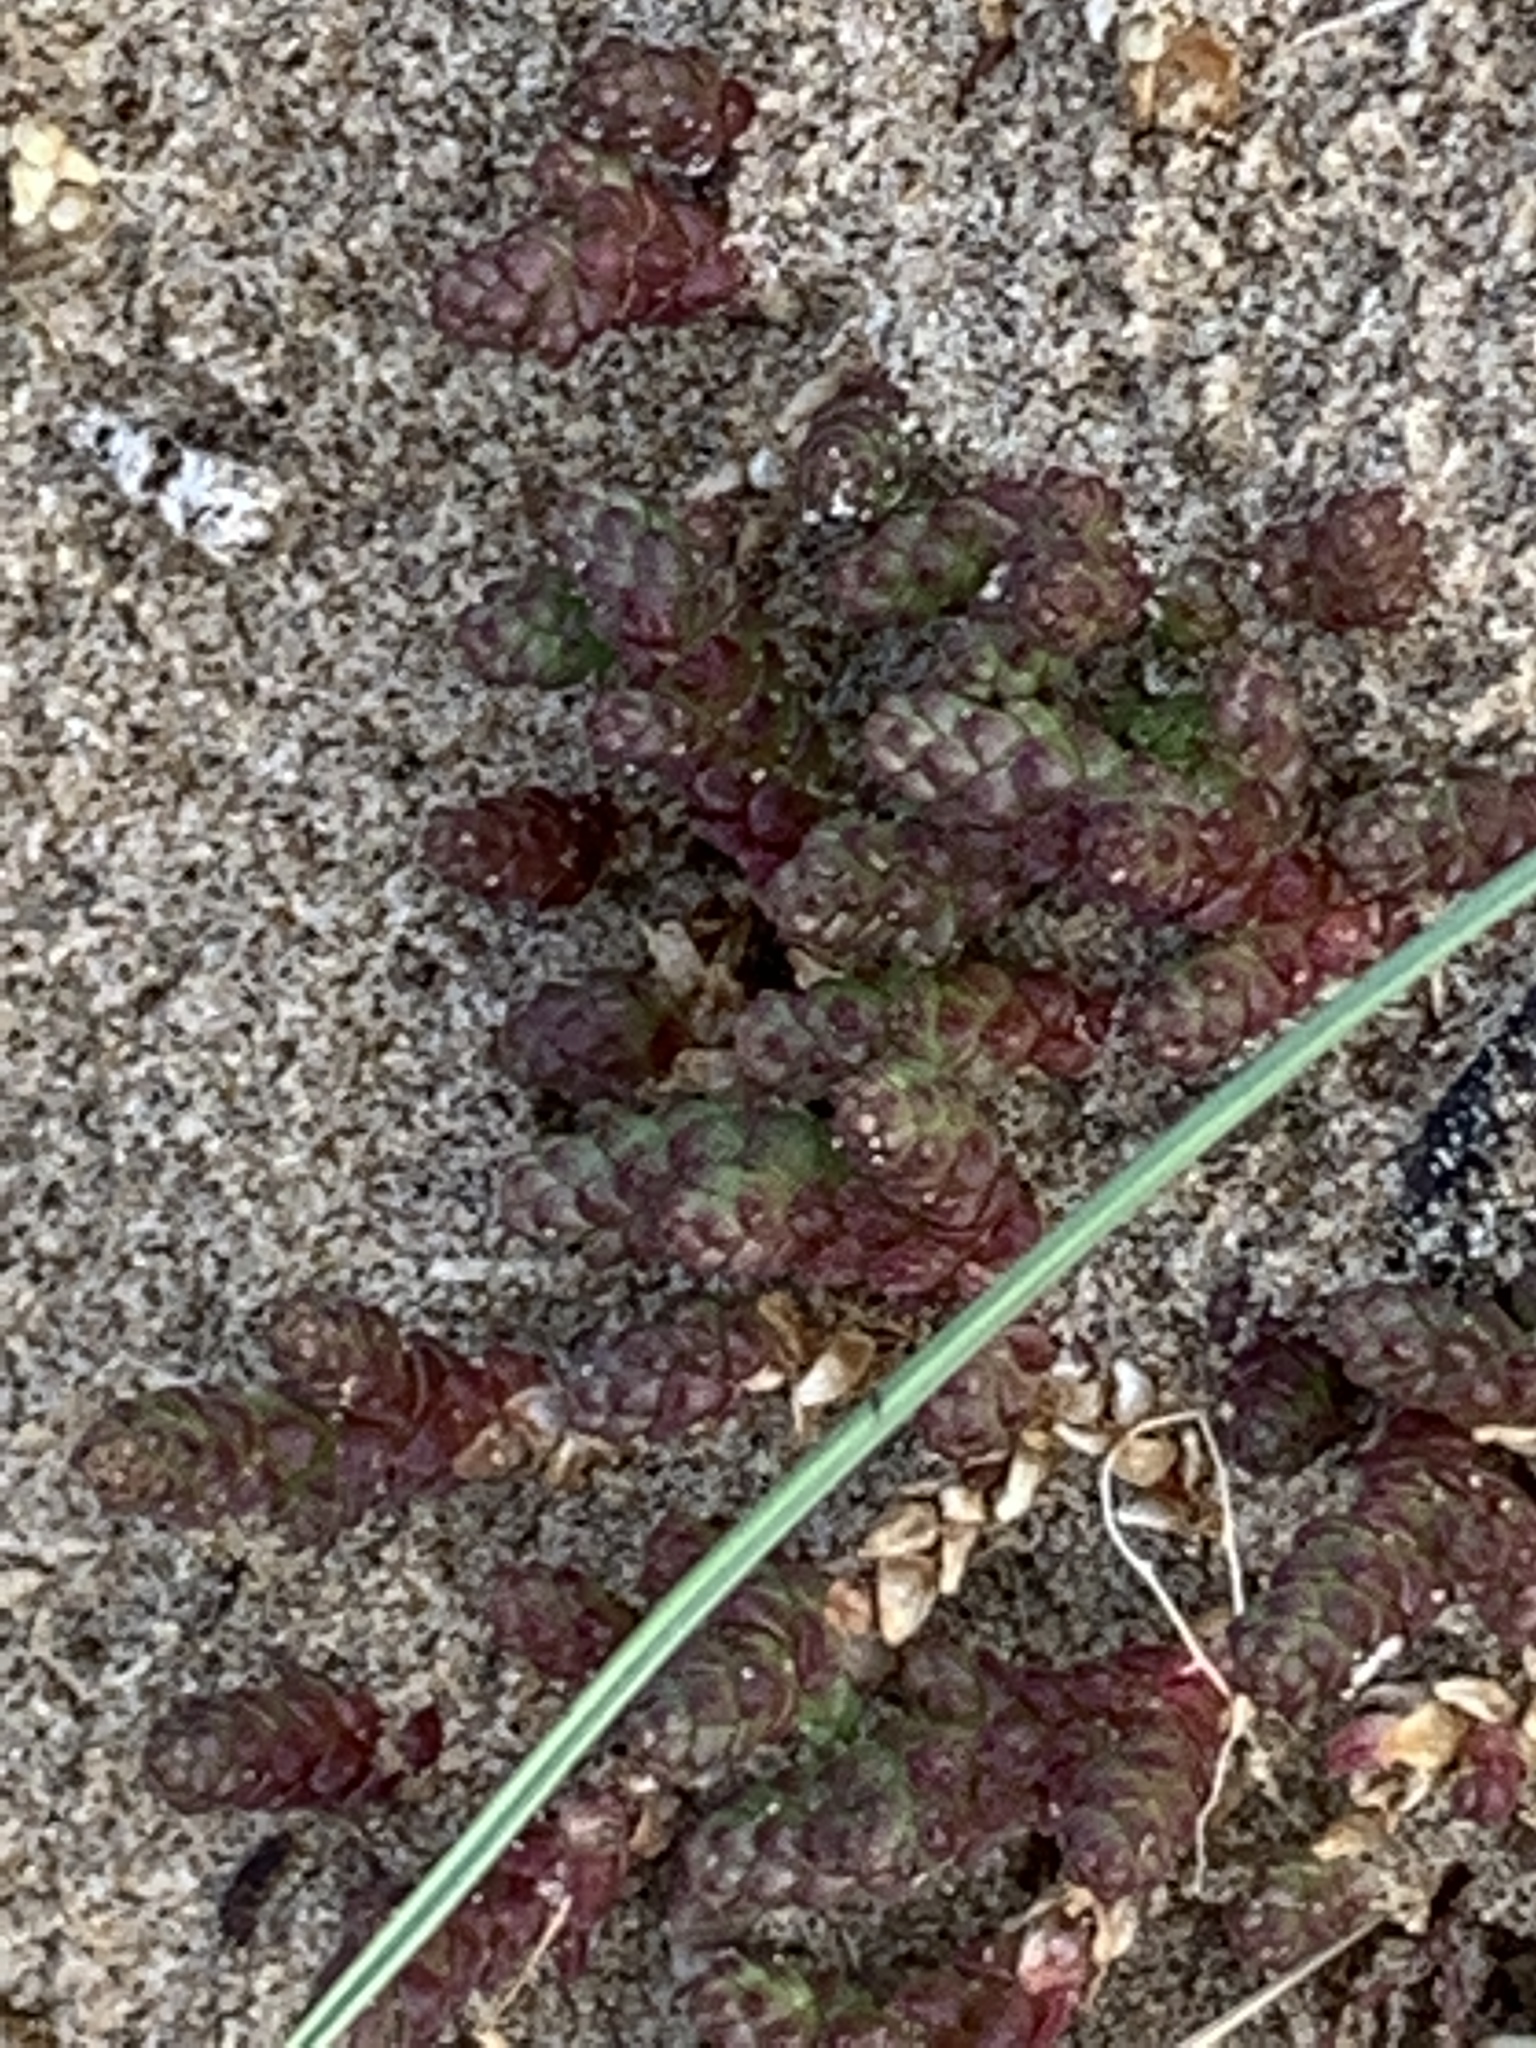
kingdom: Plantae
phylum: Tracheophyta
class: Magnoliopsida
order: Saxifragales
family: Crassulaceae
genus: Sedum
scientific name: Sedum acre
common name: Biting stonecrop
